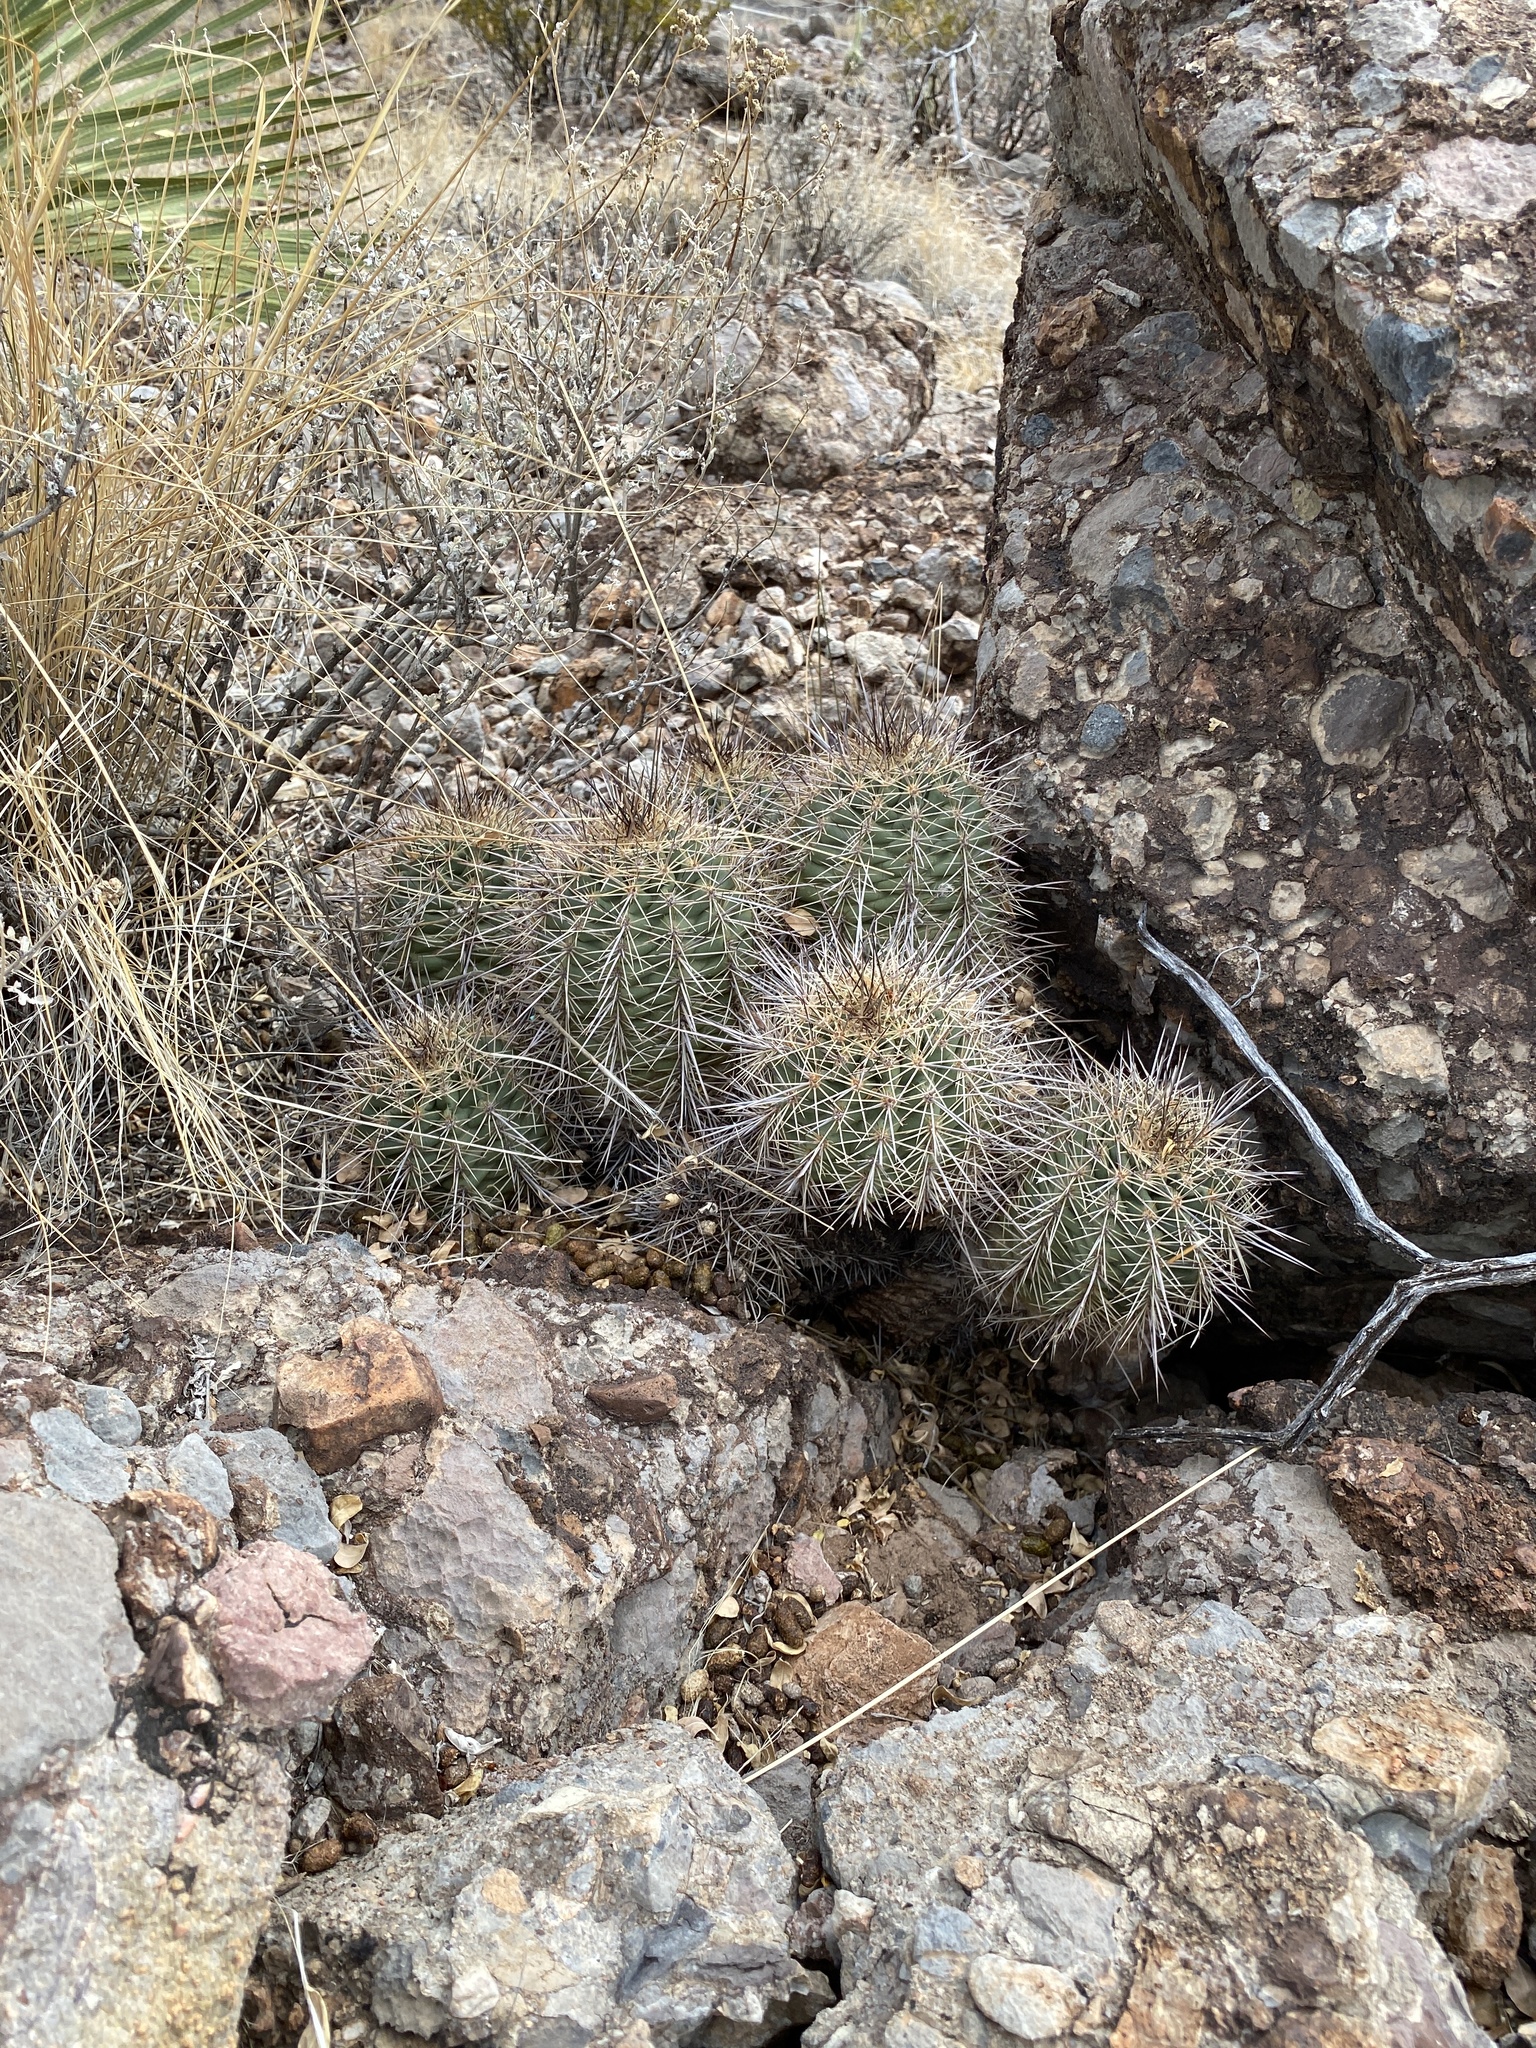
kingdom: Plantae
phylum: Tracheophyta
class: Magnoliopsida
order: Caryophyllales
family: Cactaceae
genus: Echinocereus
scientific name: Echinocereus coccineus
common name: Scarlet hedgehog cactus
